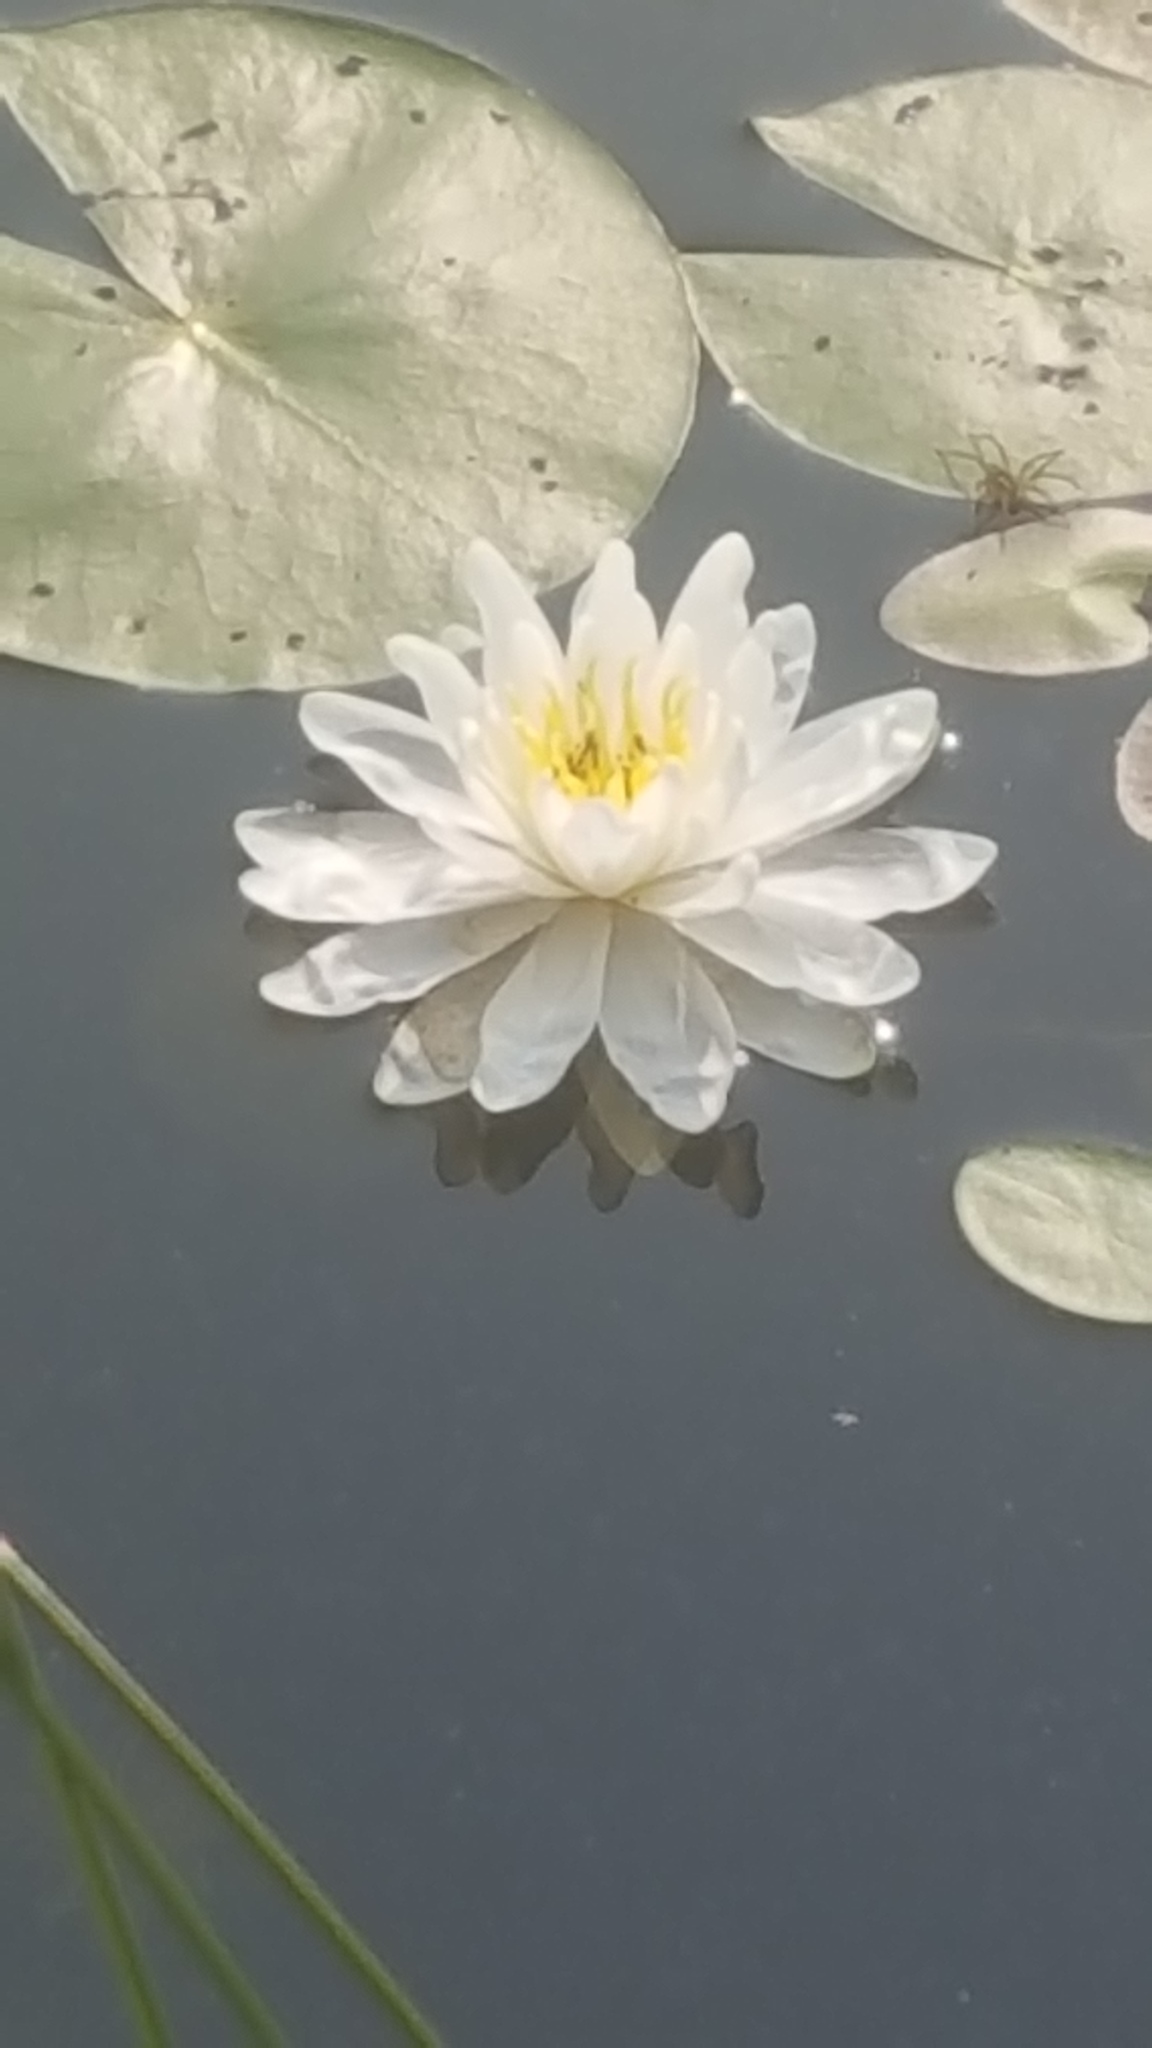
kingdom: Plantae
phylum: Tracheophyta
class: Magnoliopsida
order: Nymphaeales
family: Nymphaeaceae
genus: Nymphaea
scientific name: Nymphaea odorata
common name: Fragrant water-lily
